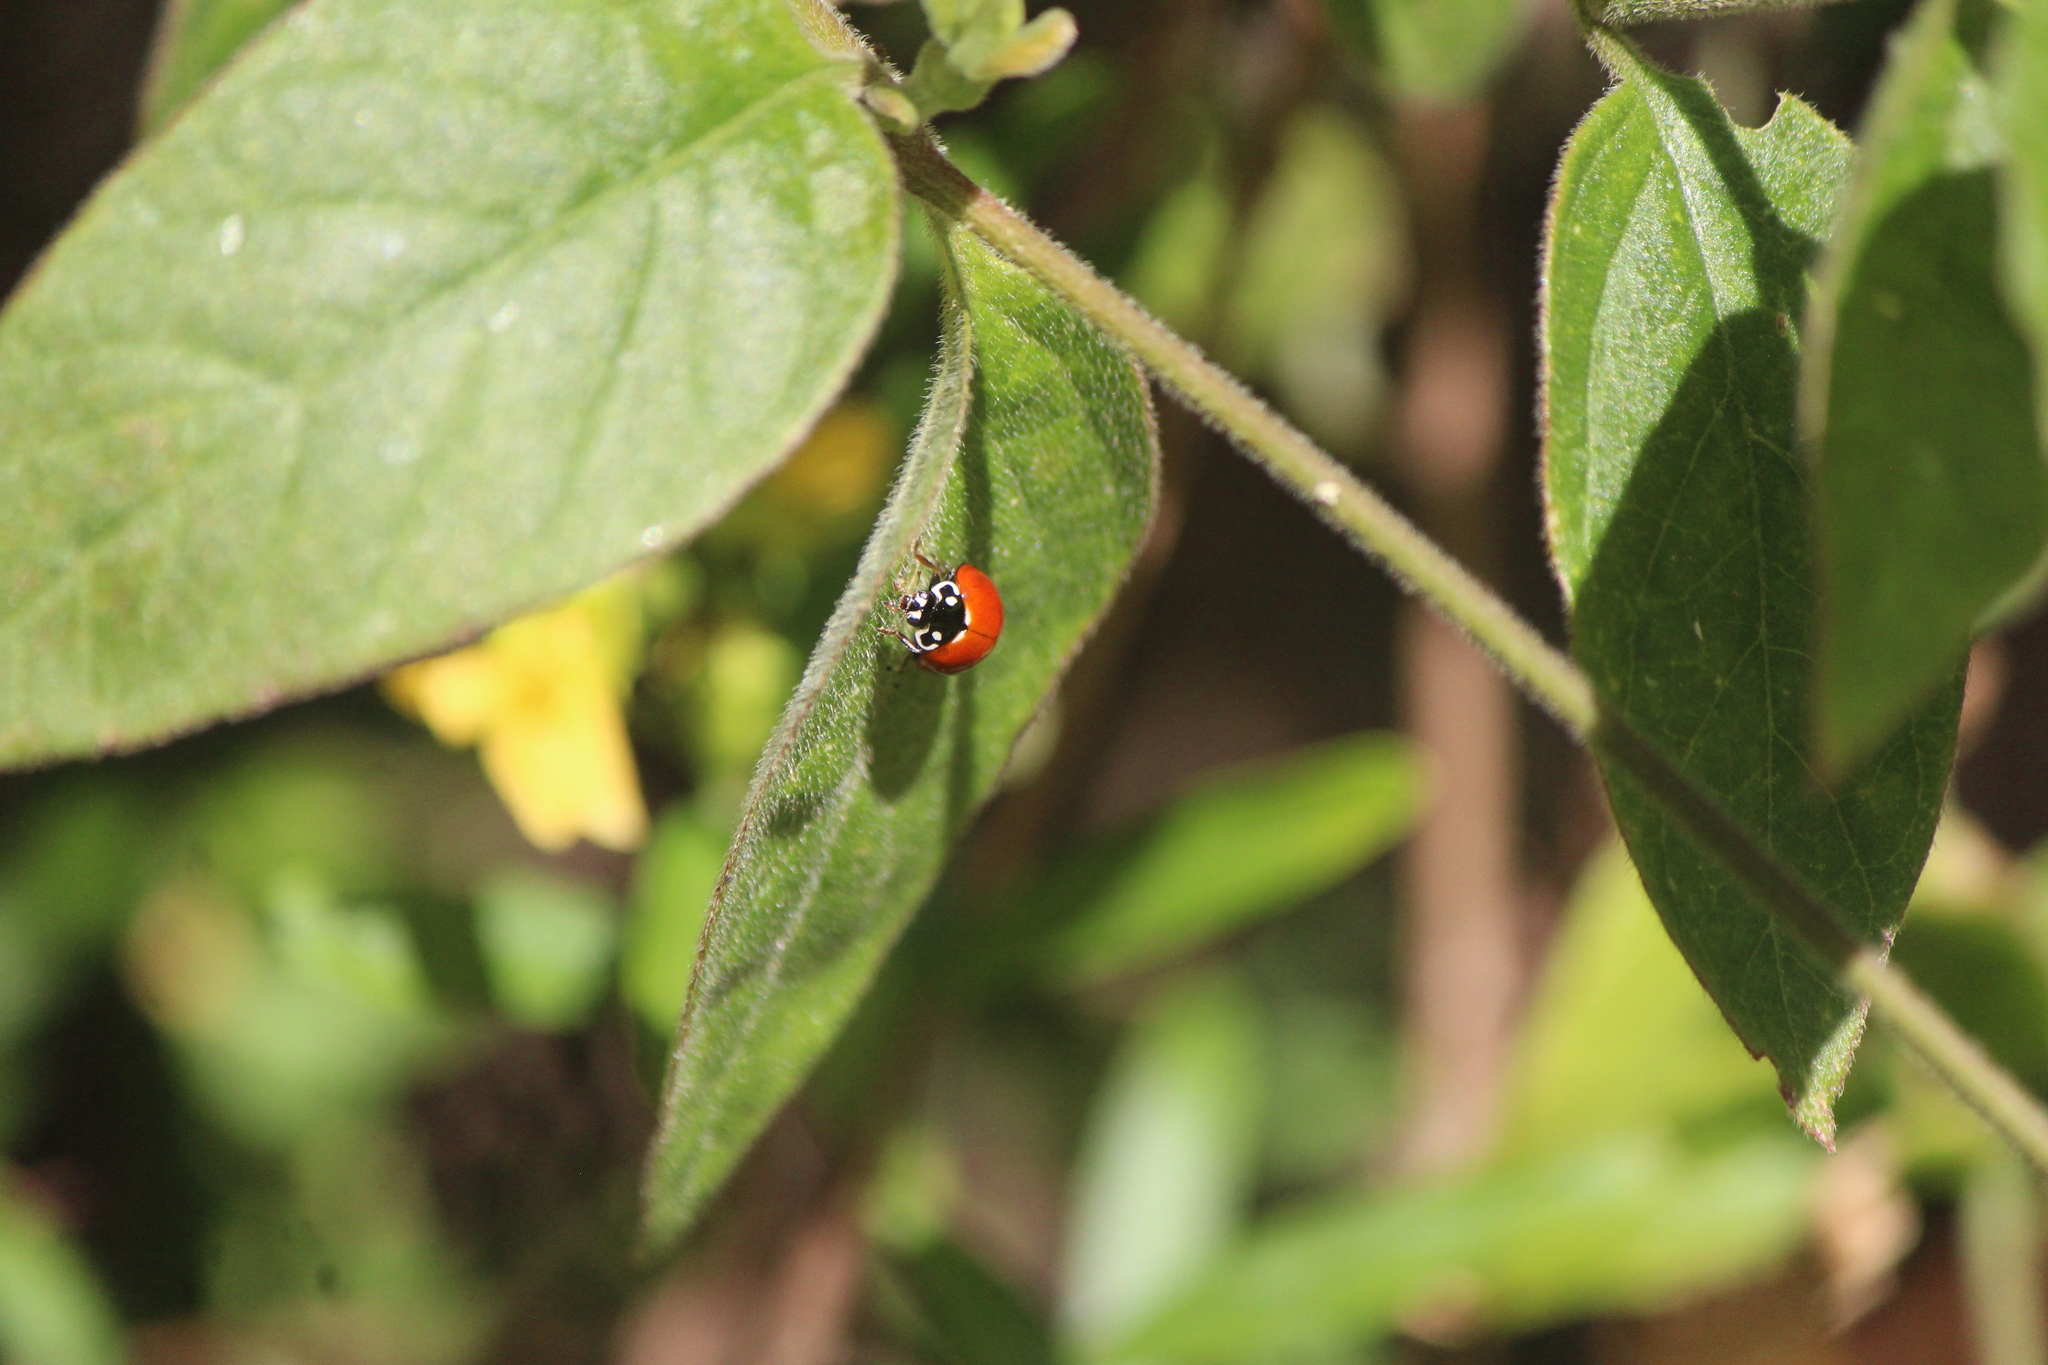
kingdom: Animalia
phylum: Arthropoda
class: Insecta
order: Coleoptera
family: Coccinellidae
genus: Cycloneda
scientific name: Cycloneda sanguinea
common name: Ladybird beetle
